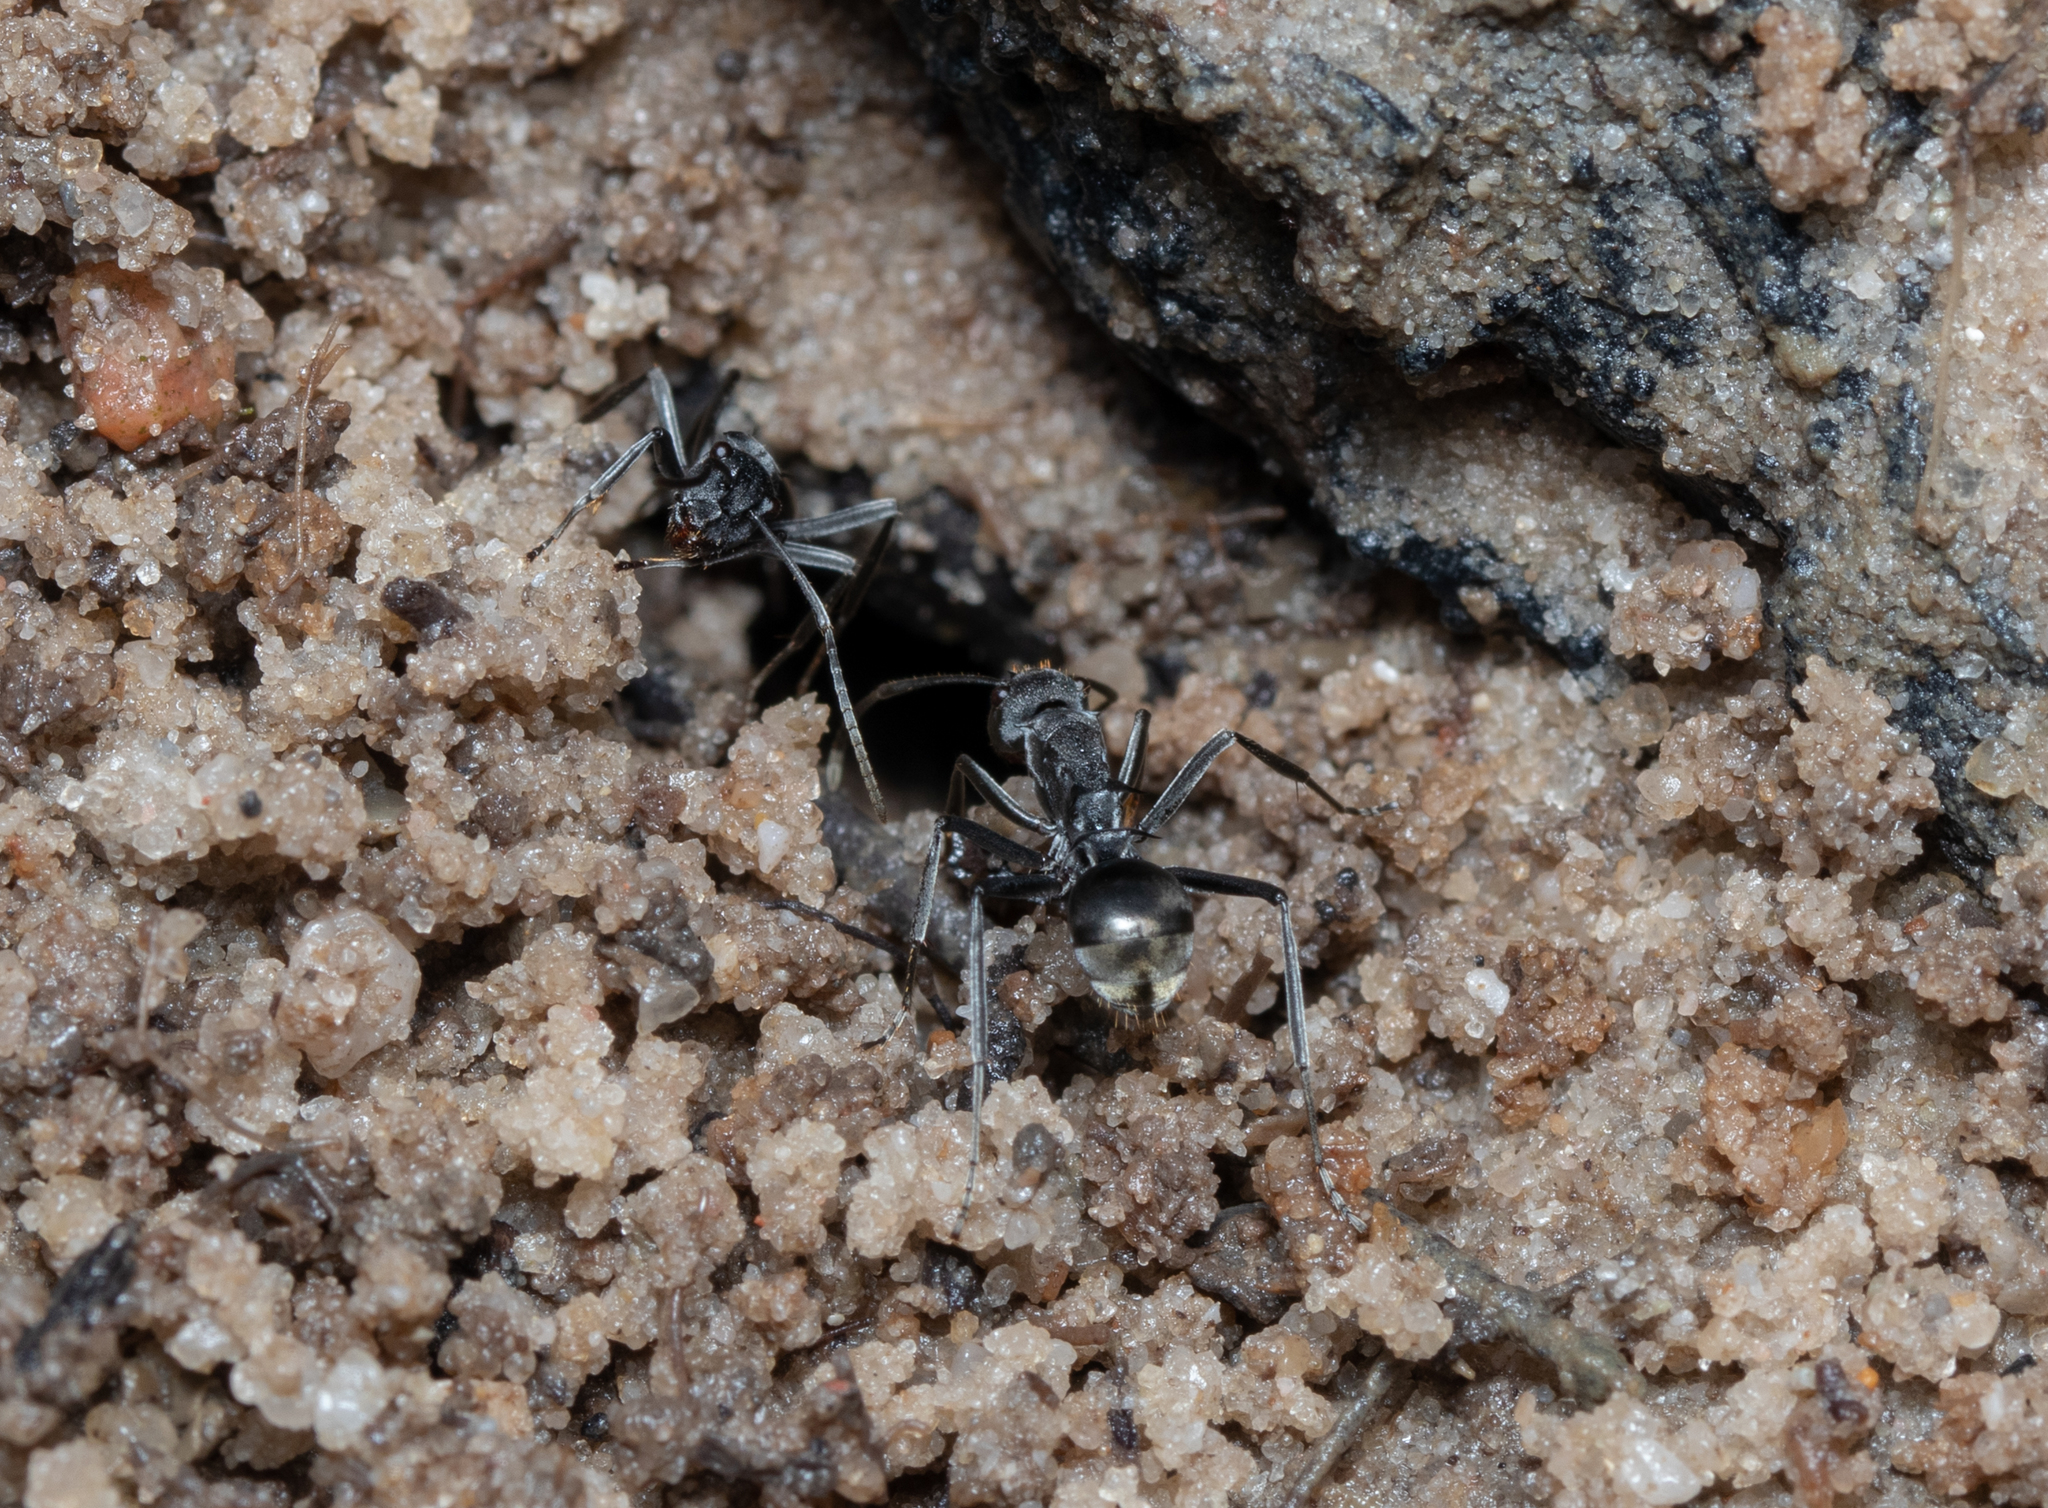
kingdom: Animalia
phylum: Arthropoda
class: Insecta
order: Hymenoptera
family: Formicidae
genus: Polyrhachis
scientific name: Polyrhachis sokolova
